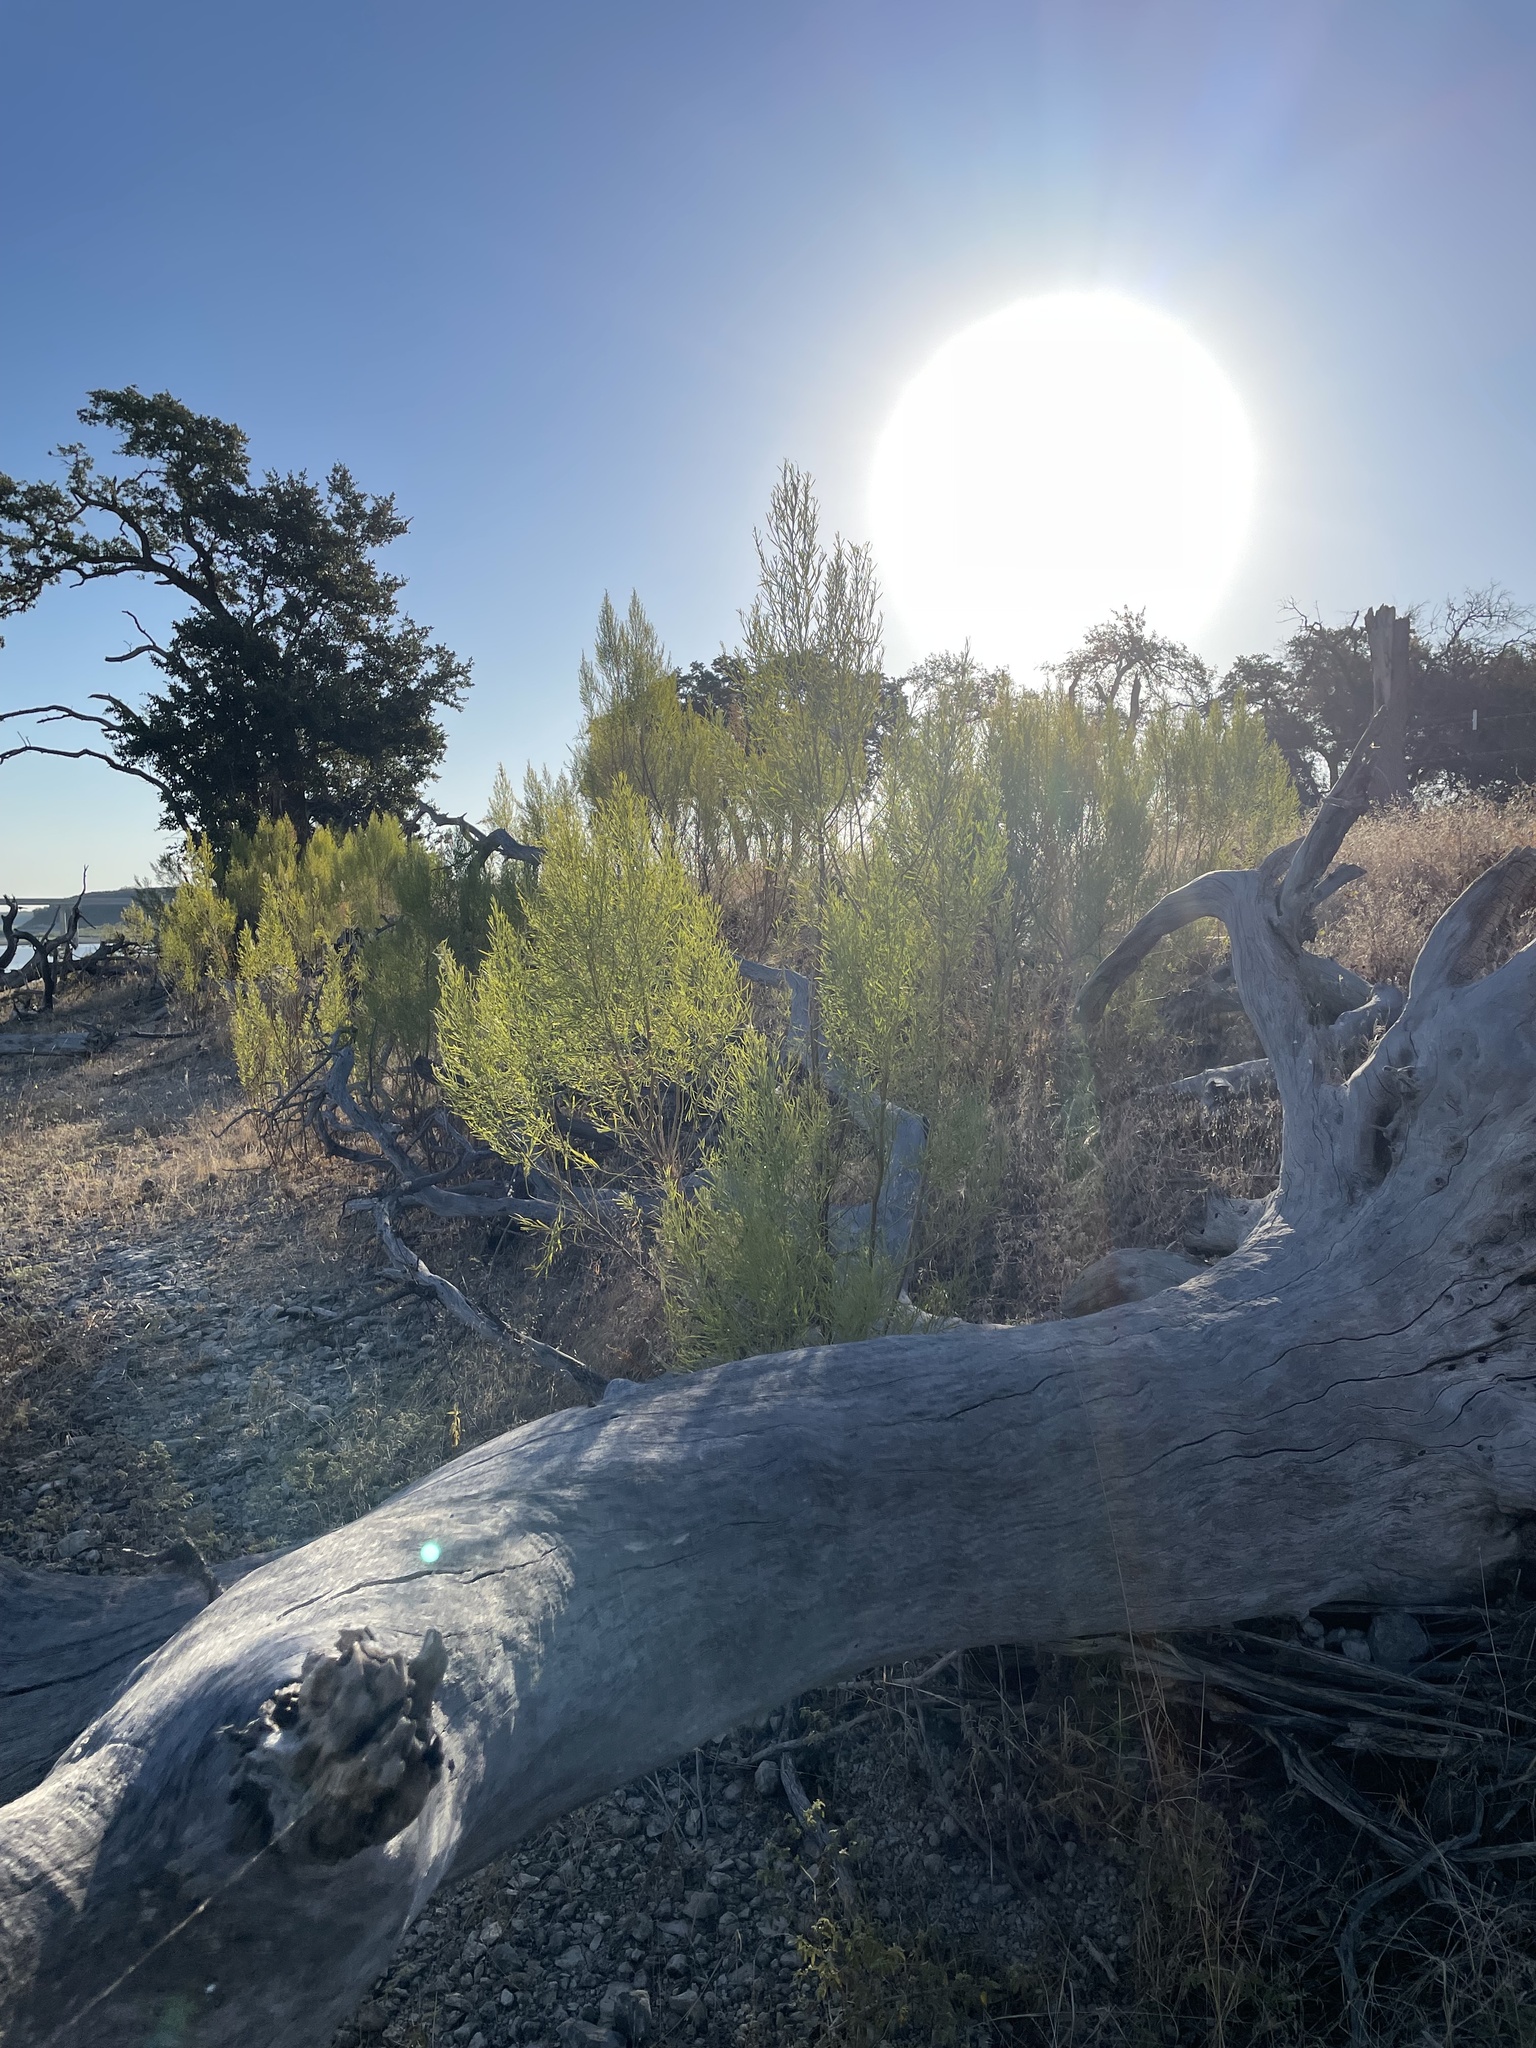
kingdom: Plantae
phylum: Tracheophyta
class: Magnoliopsida
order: Asterales
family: Asteraceae
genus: Baccharis
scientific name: Baccharis neglecta
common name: Roosevelt-weed
